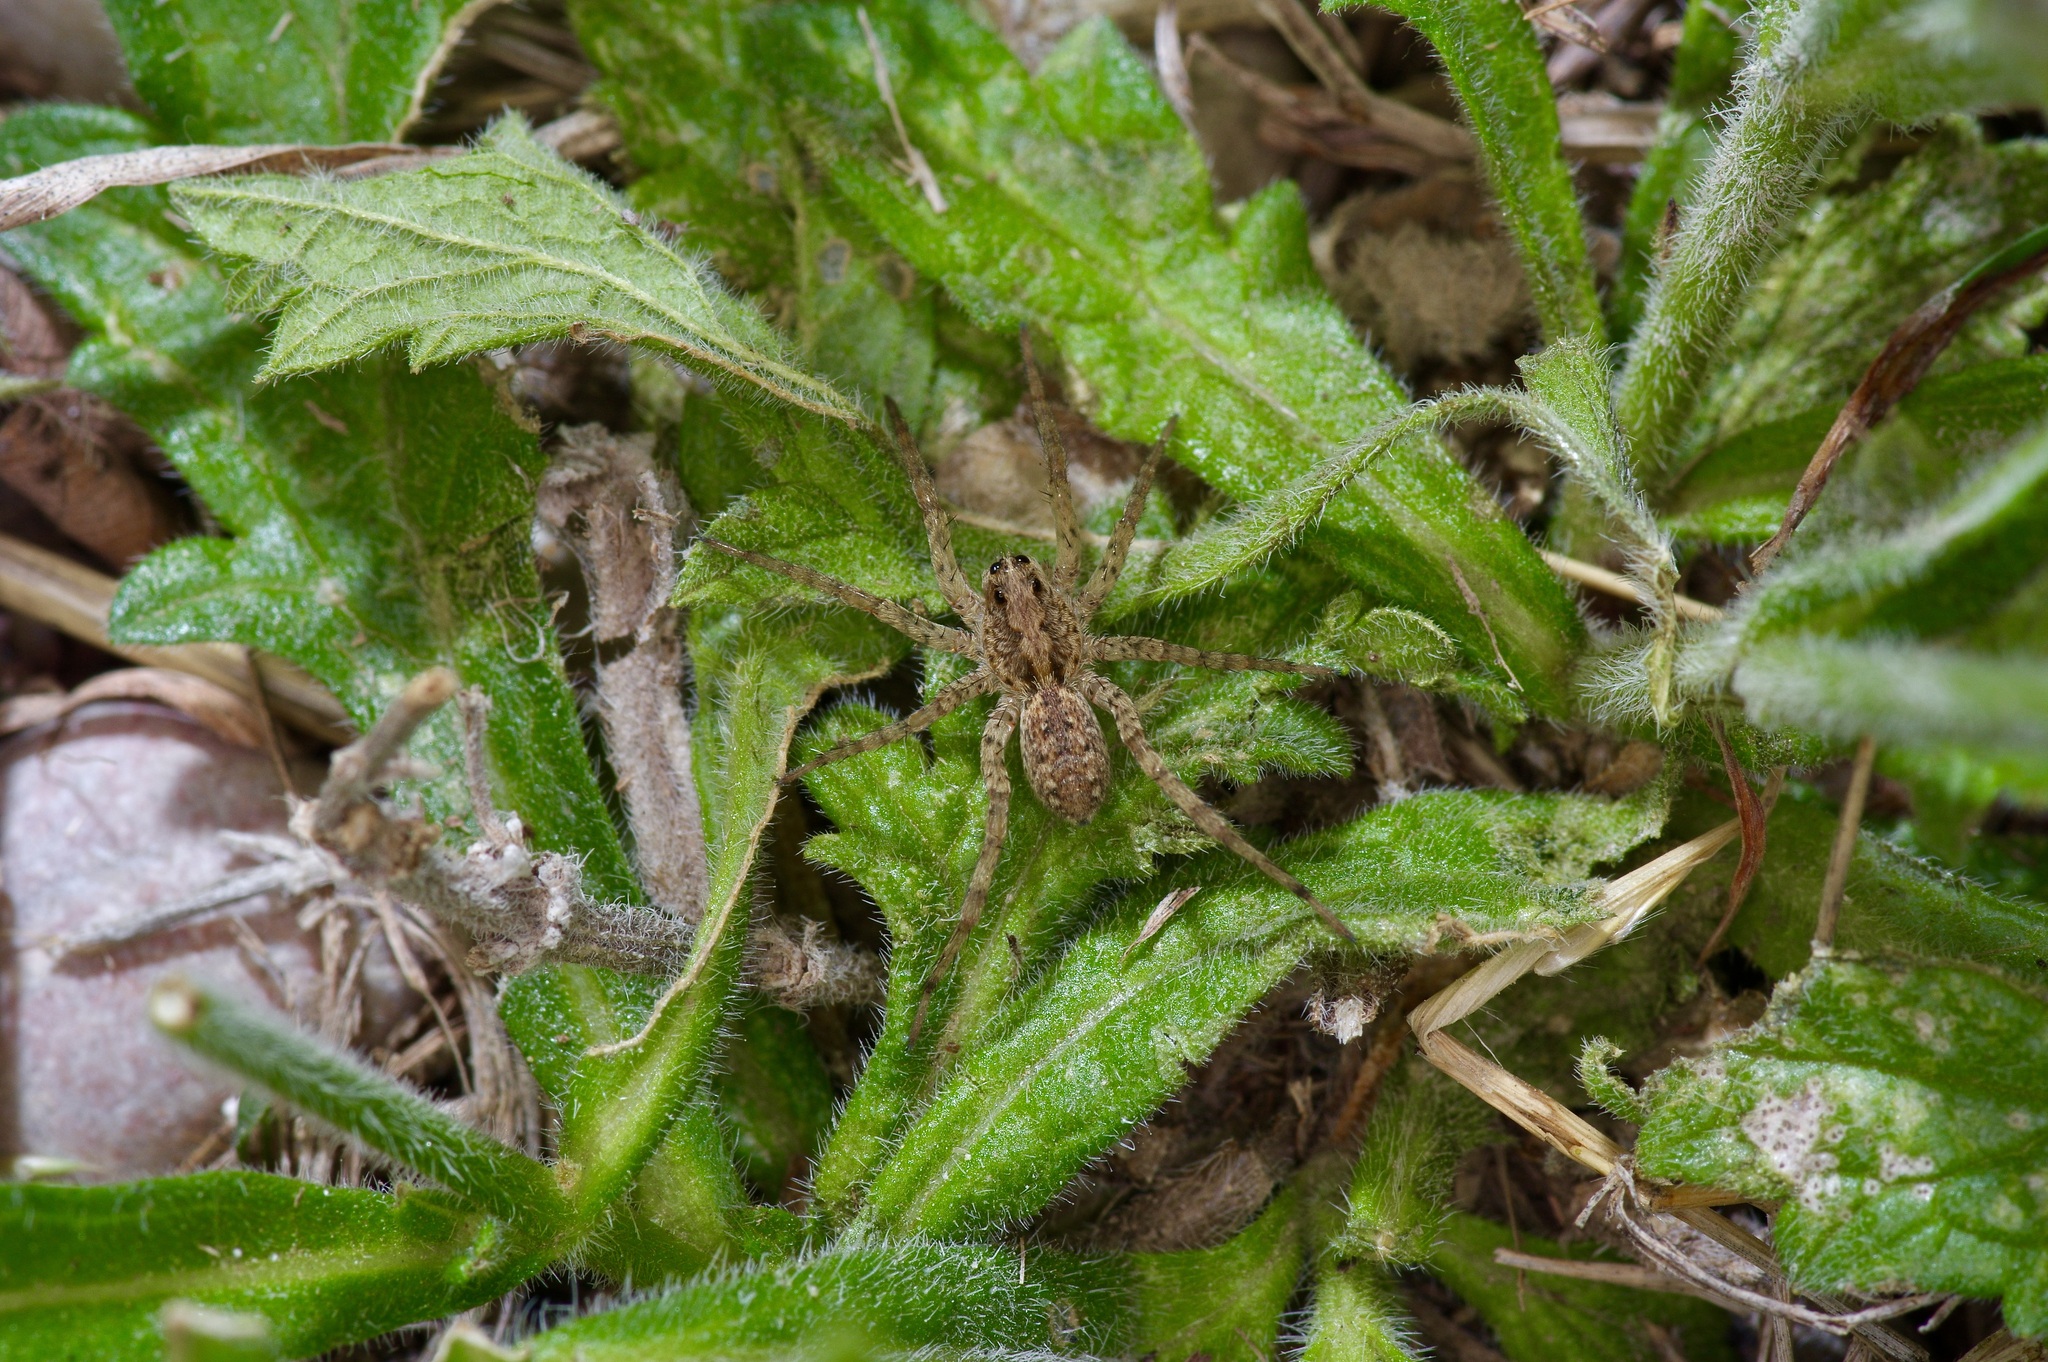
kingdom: Animalia
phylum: Arthropoda
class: Arachnida
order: Araneae
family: Lycosidae
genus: Hogna
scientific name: Hogna antelucana
